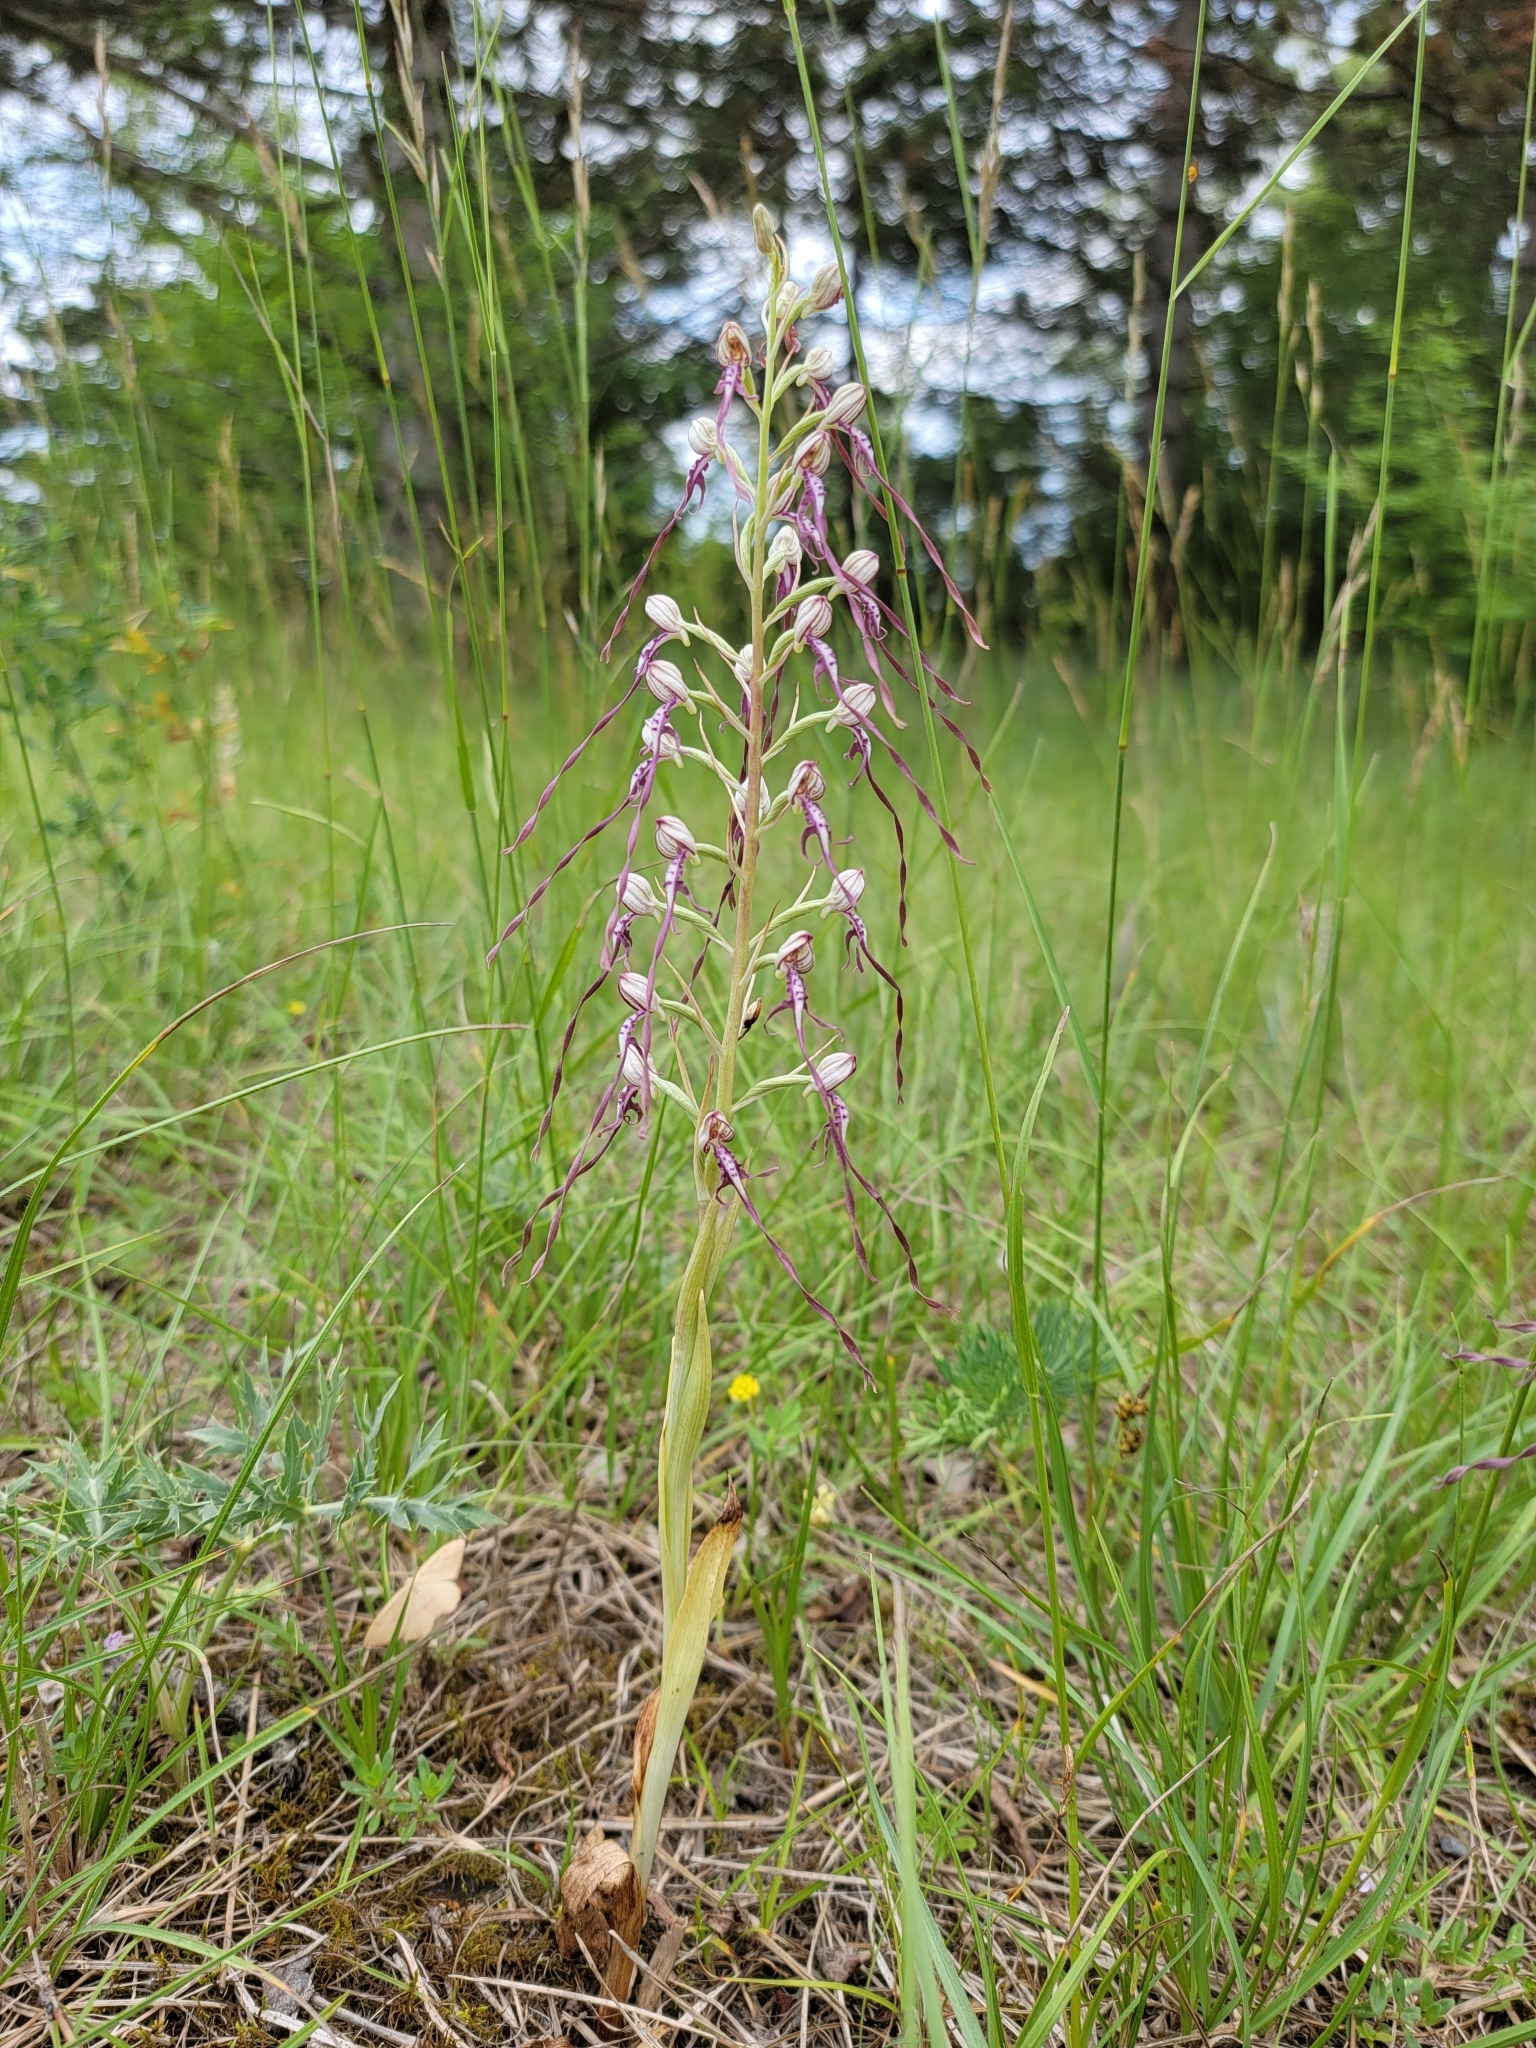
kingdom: Plantae
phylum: Tracheophyta
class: Liliopsida
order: Asparagales
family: Orchidaceae
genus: Himantoglossum
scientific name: Himantoglossum adriaticum
